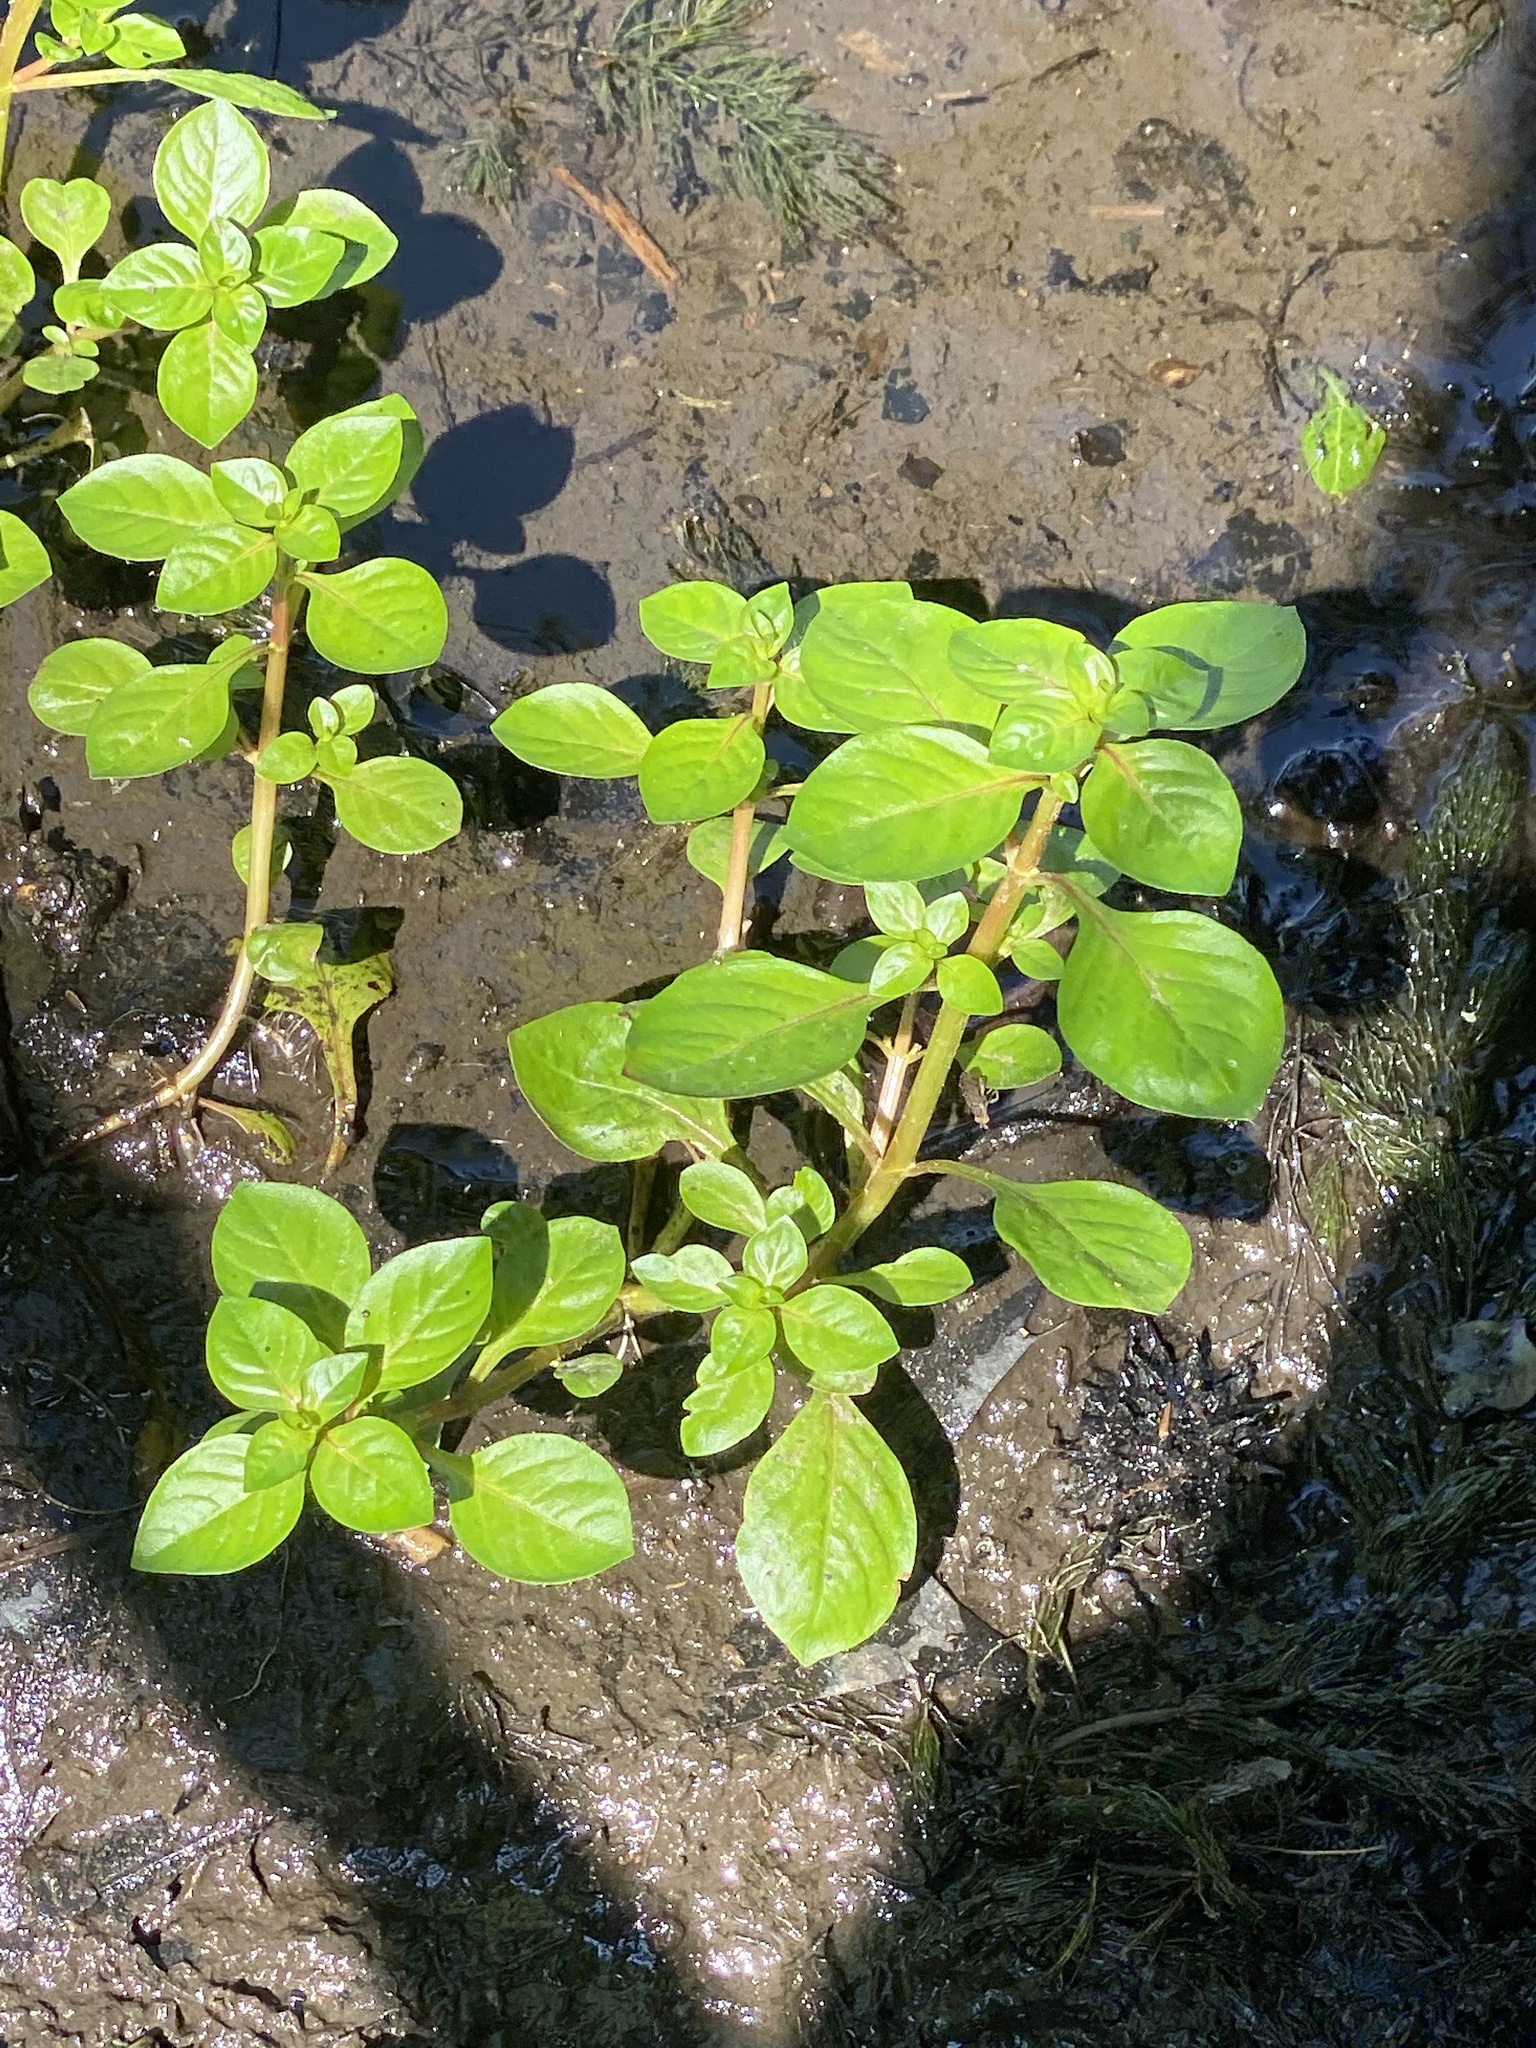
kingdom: Plantae
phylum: Tracheophyta
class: Magnoliopsida
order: Myrtales
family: Onagraceae
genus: Ludwigia
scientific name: Ludwigia palustris
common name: Hampshire-purslane
